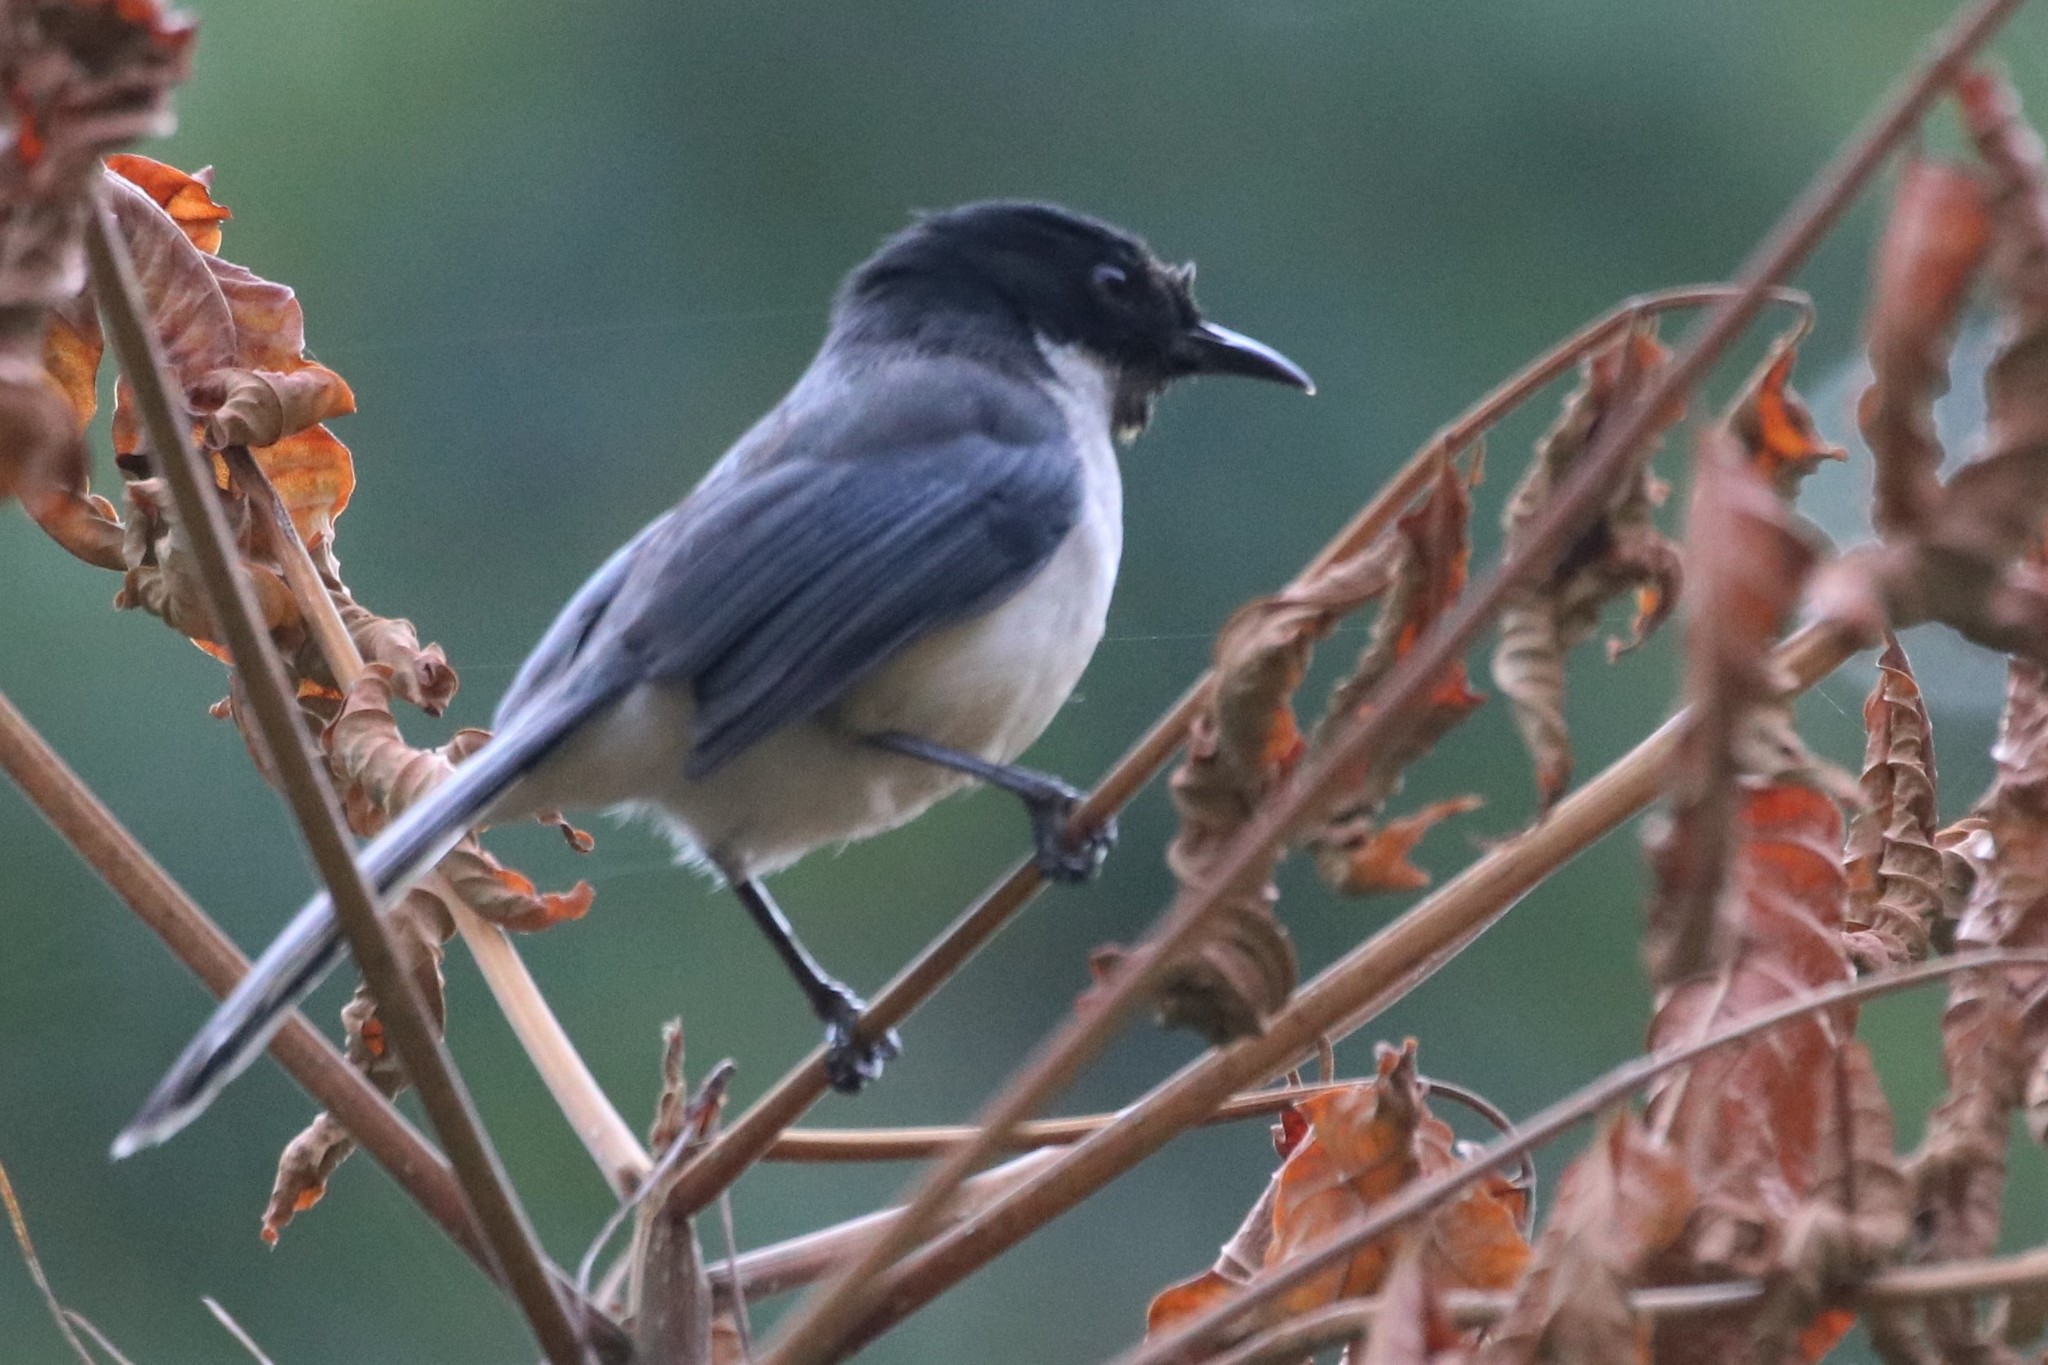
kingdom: Animalia
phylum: Chordata
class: Aves
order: Passeriformes
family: Leiothrichidae
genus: Heterophasia
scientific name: Heterophasia melanoleuca
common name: Dark-backed sibia
